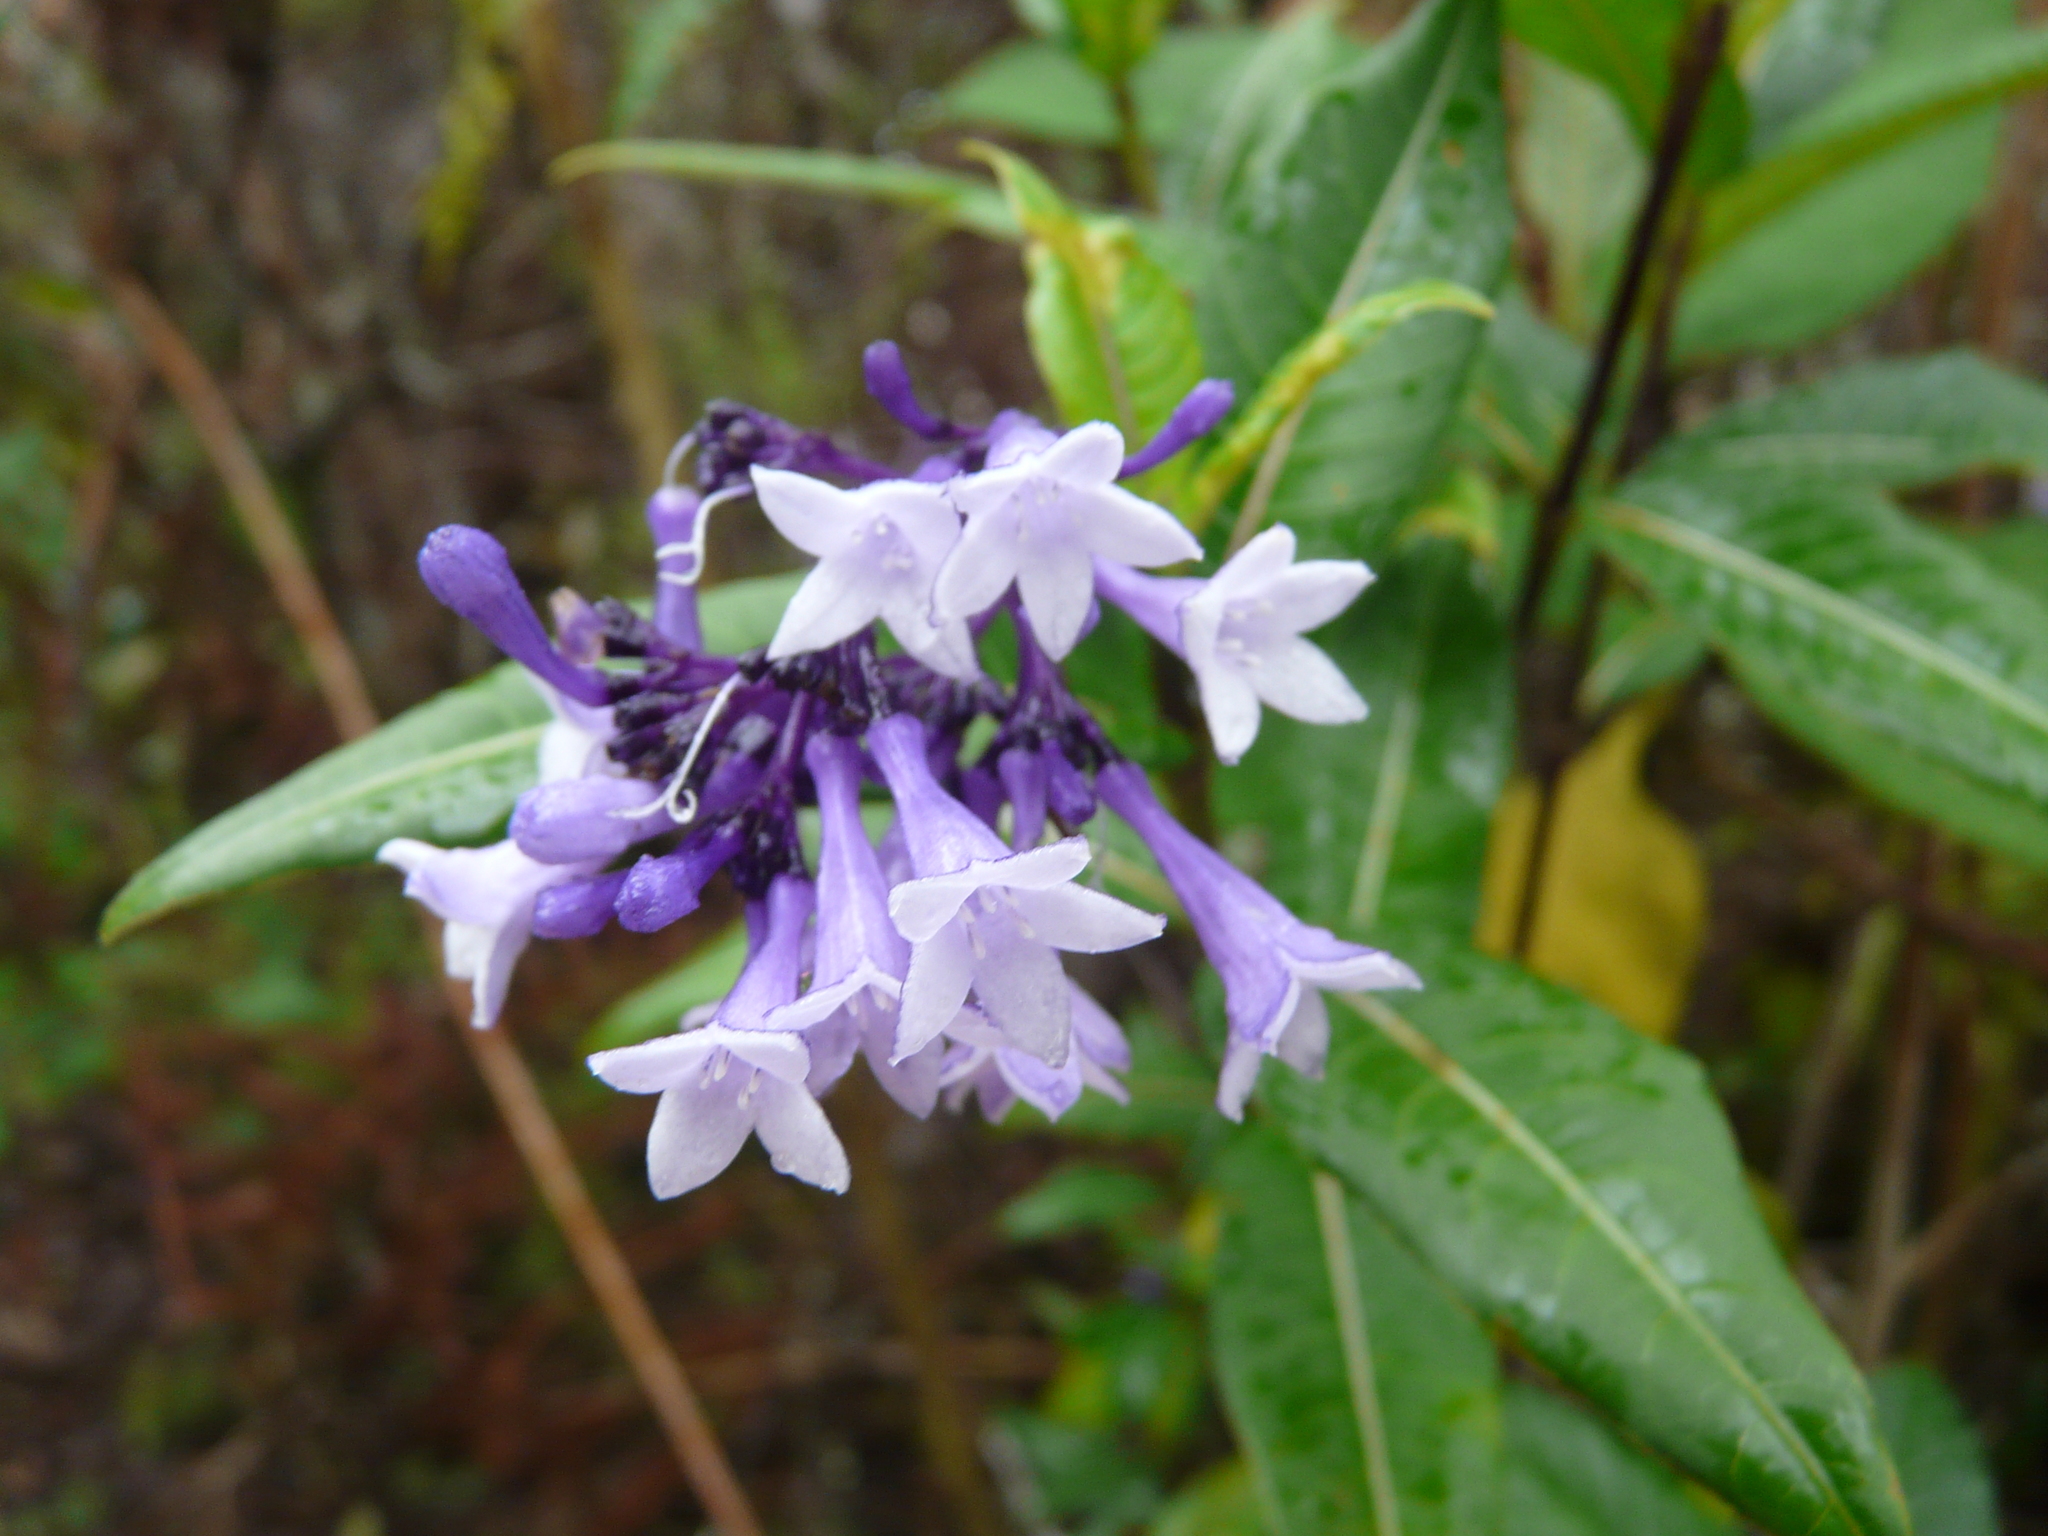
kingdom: Plantae
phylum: Tracheophyta
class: Magnoliopsida
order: Gentianales
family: Rubiaceae
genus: Palicourea
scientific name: Palicourea pittieri
